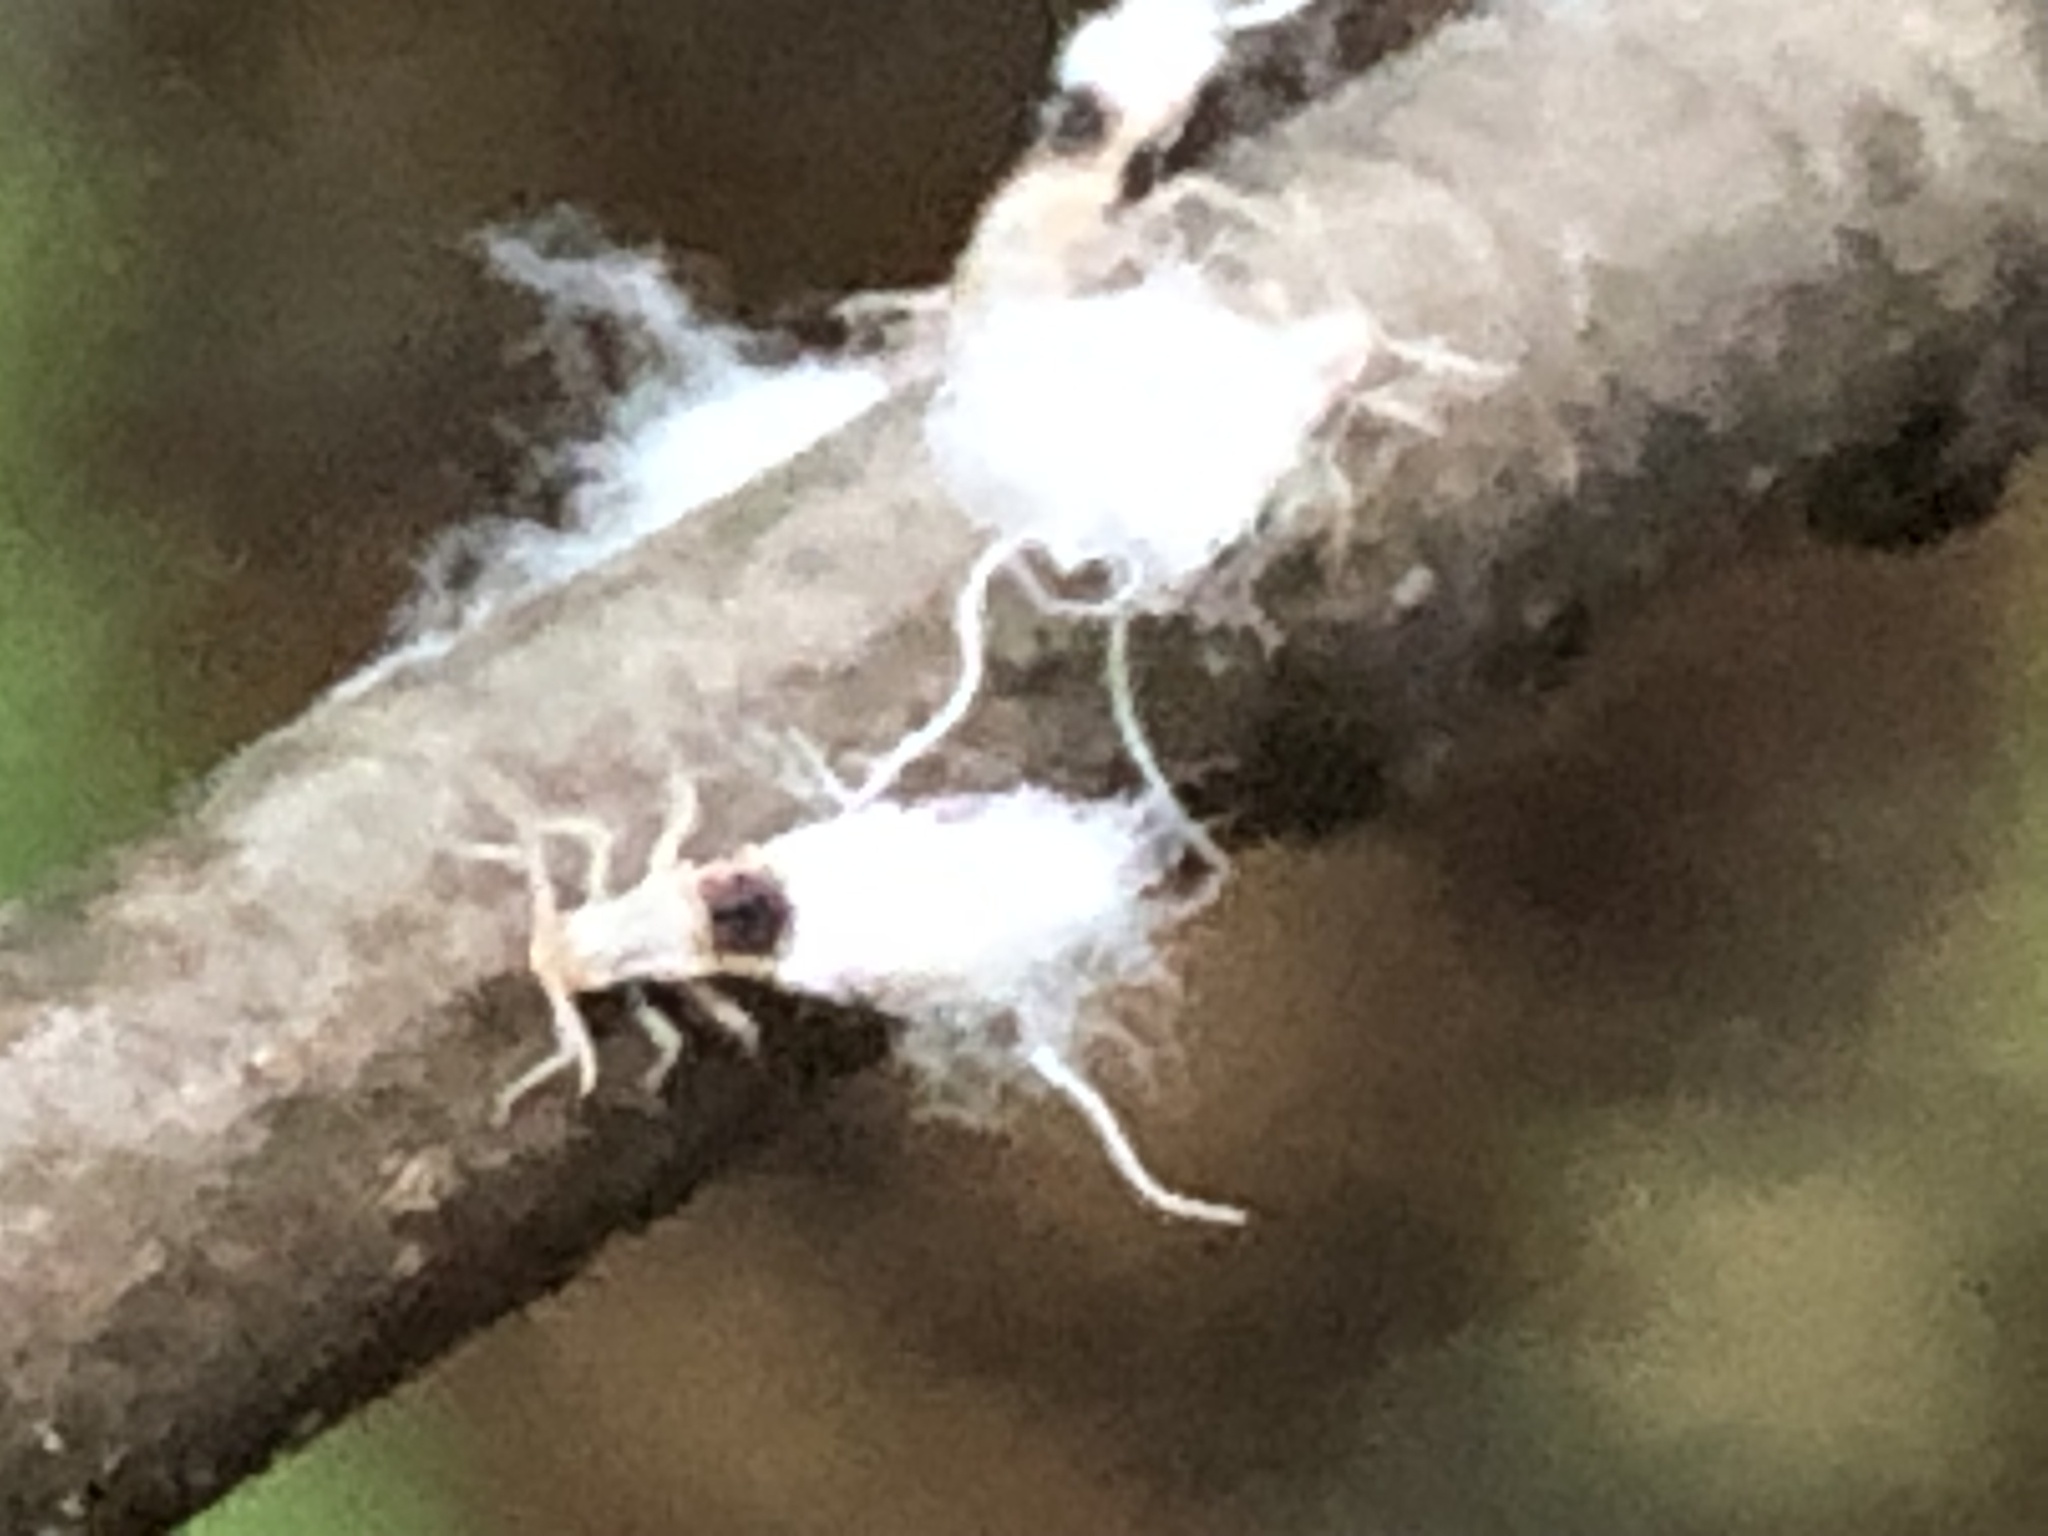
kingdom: Animalia
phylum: Arthropoda
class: Insecta
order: Hemiptera
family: Aphididae
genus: Grylloprociphilus
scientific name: Grylloprociphilus imbricator
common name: Beech blight aphid
